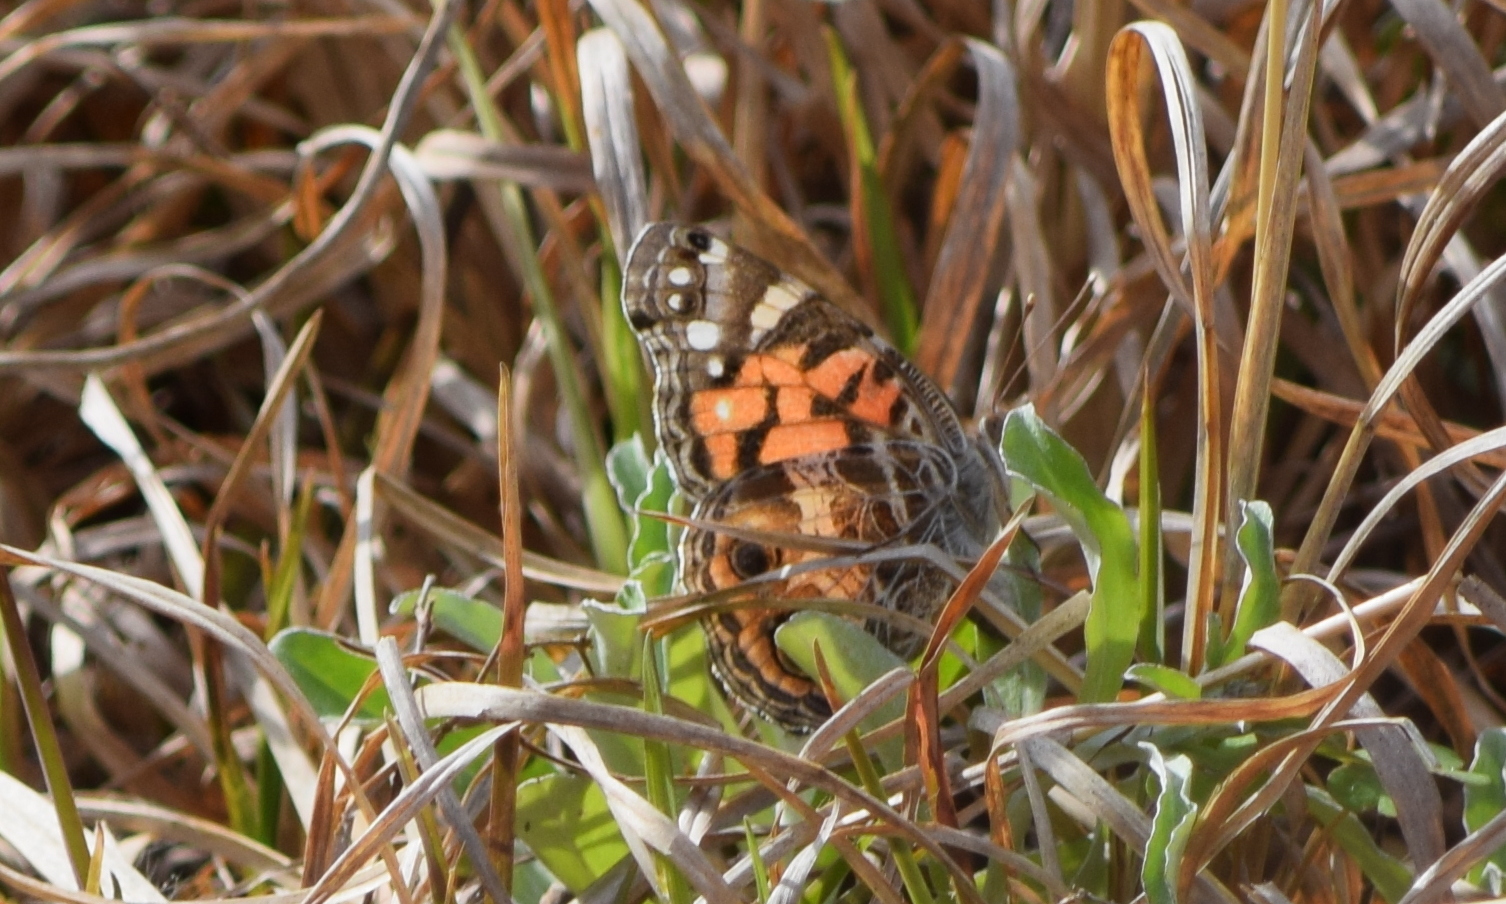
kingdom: Animalia
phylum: Arthropoda
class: Insecta
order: Lepidoptera
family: Nymphalidae
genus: Vanessa
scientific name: Vanessa virginiensis
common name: American lady
